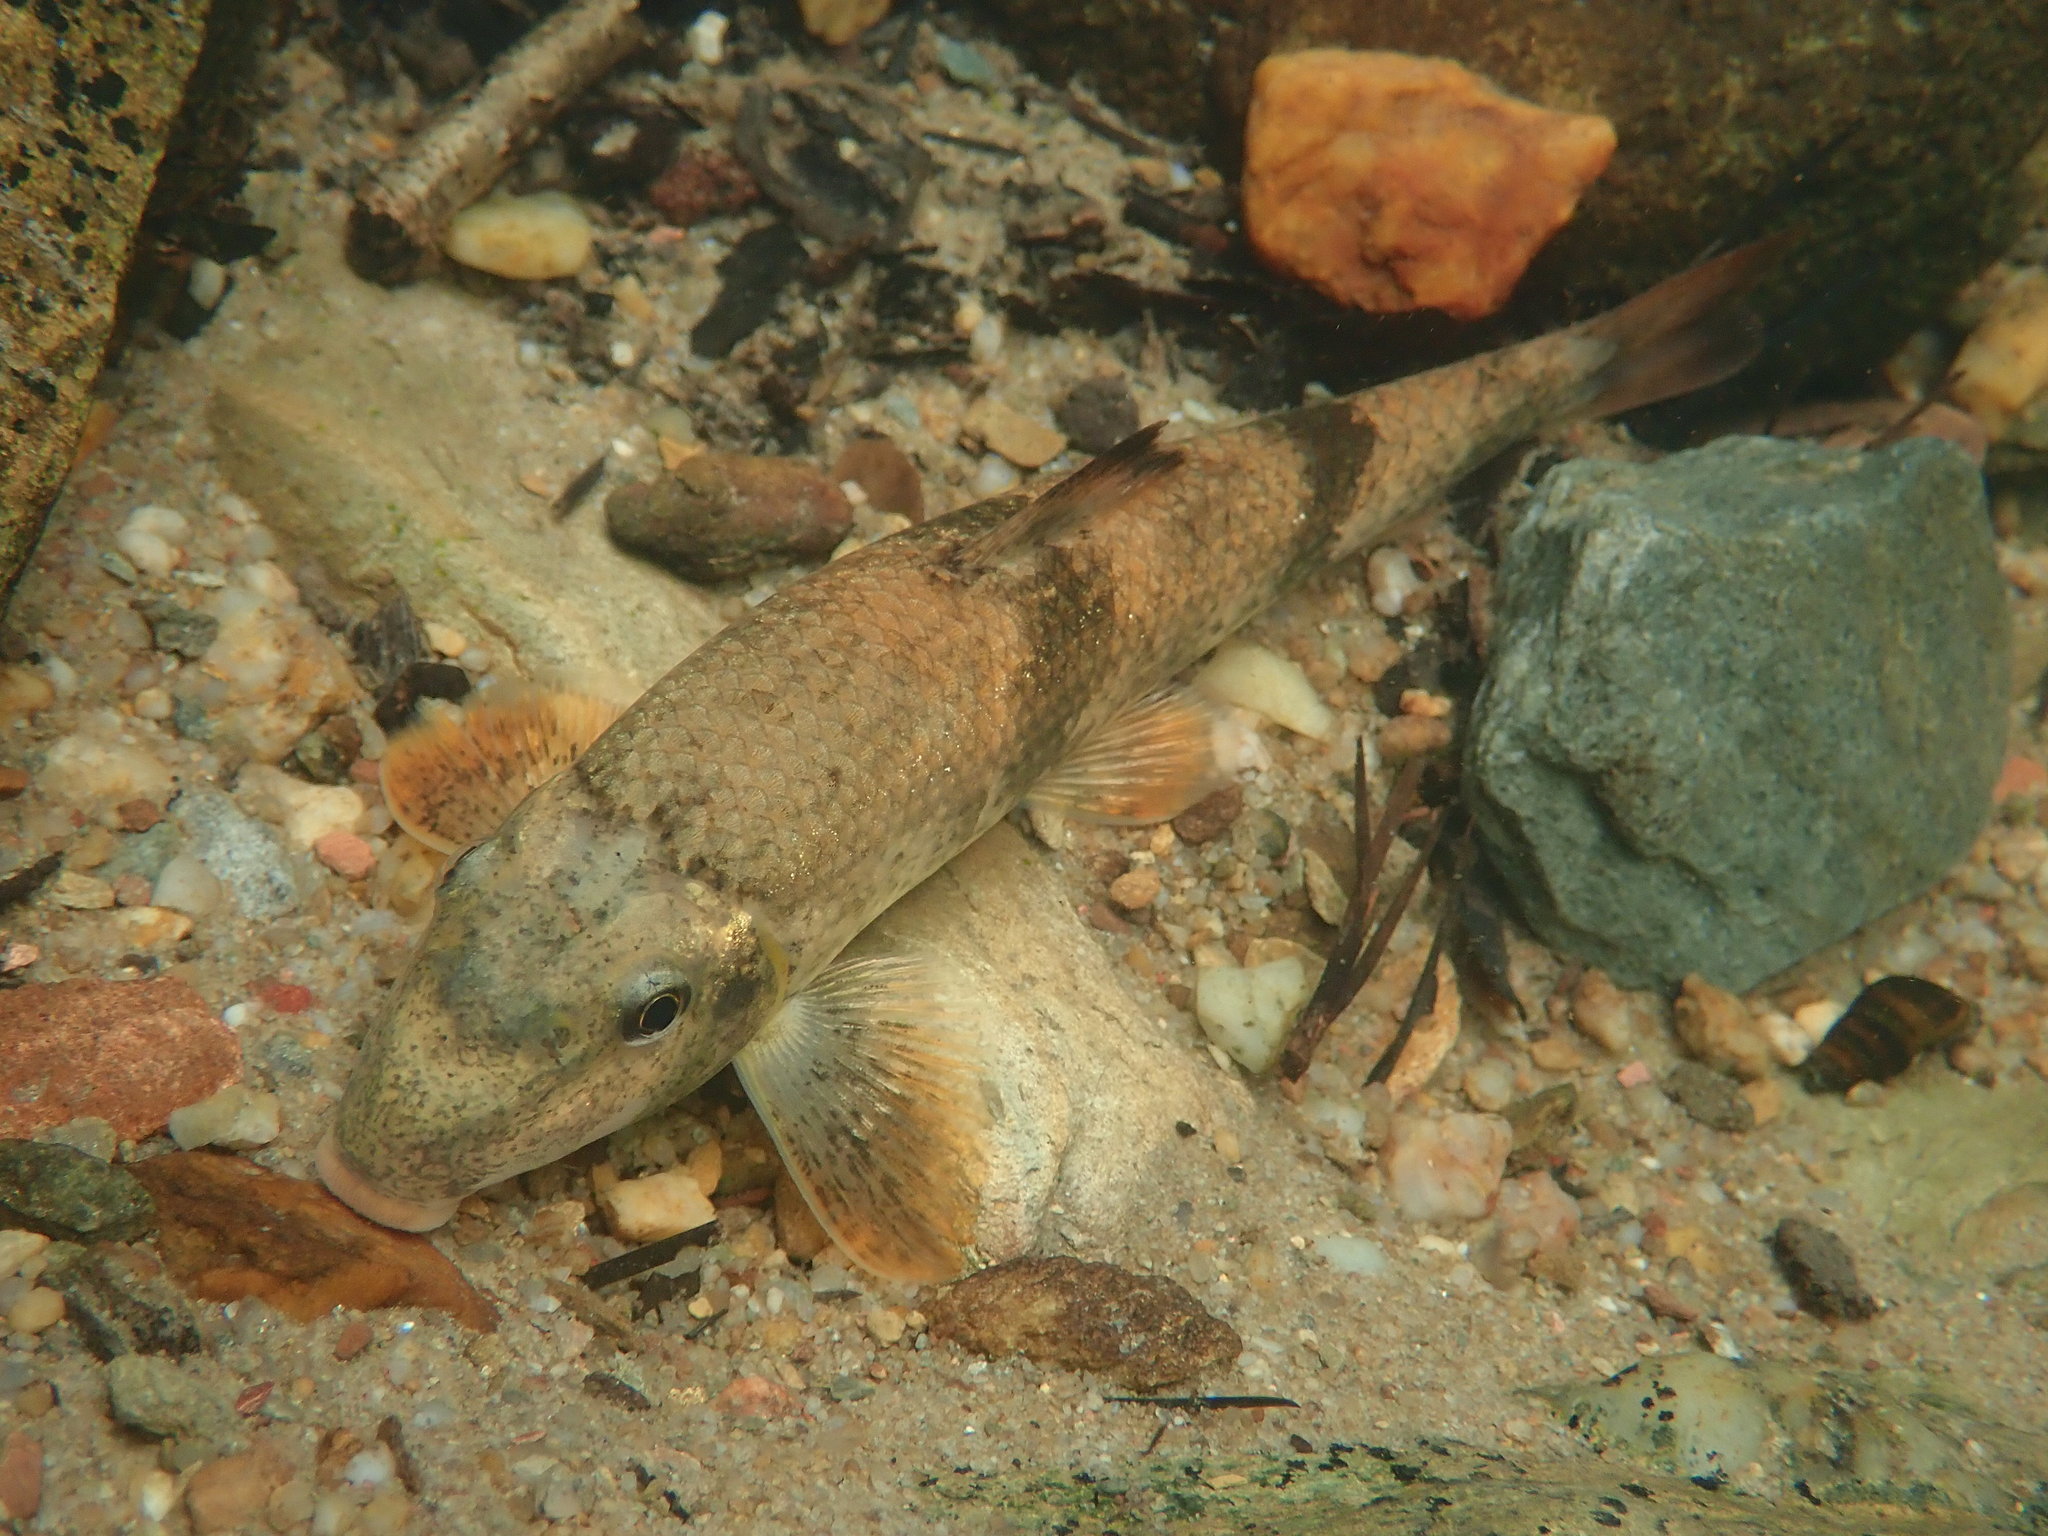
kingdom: Animalia
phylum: Chordata
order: Cypriniformes
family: Catostomidae
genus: Hypentelium
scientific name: Hypentelium etowanum
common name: Alabama hog sucker
